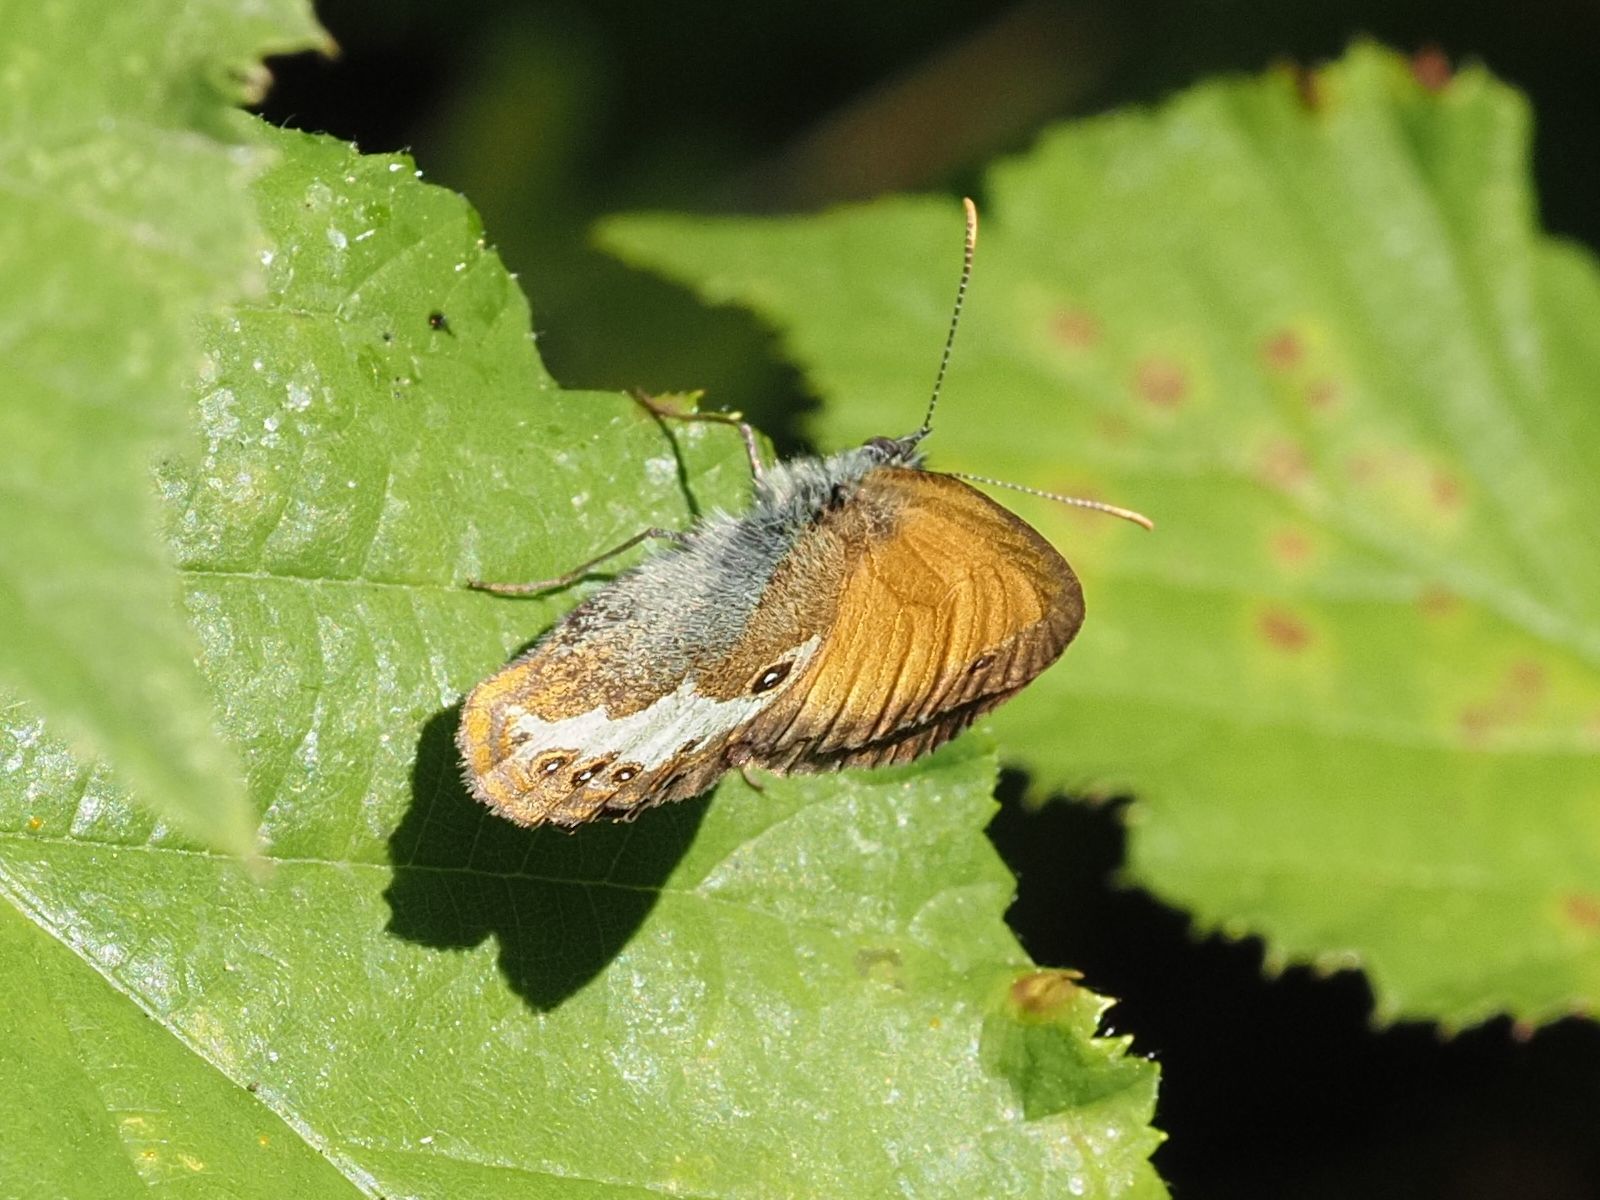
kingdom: Animalia
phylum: Arthropoda
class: Insecta
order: Lepidoptera
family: Nymphalidae
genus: Coenonympha
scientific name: Coenonympha arcania
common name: Pearly heath
